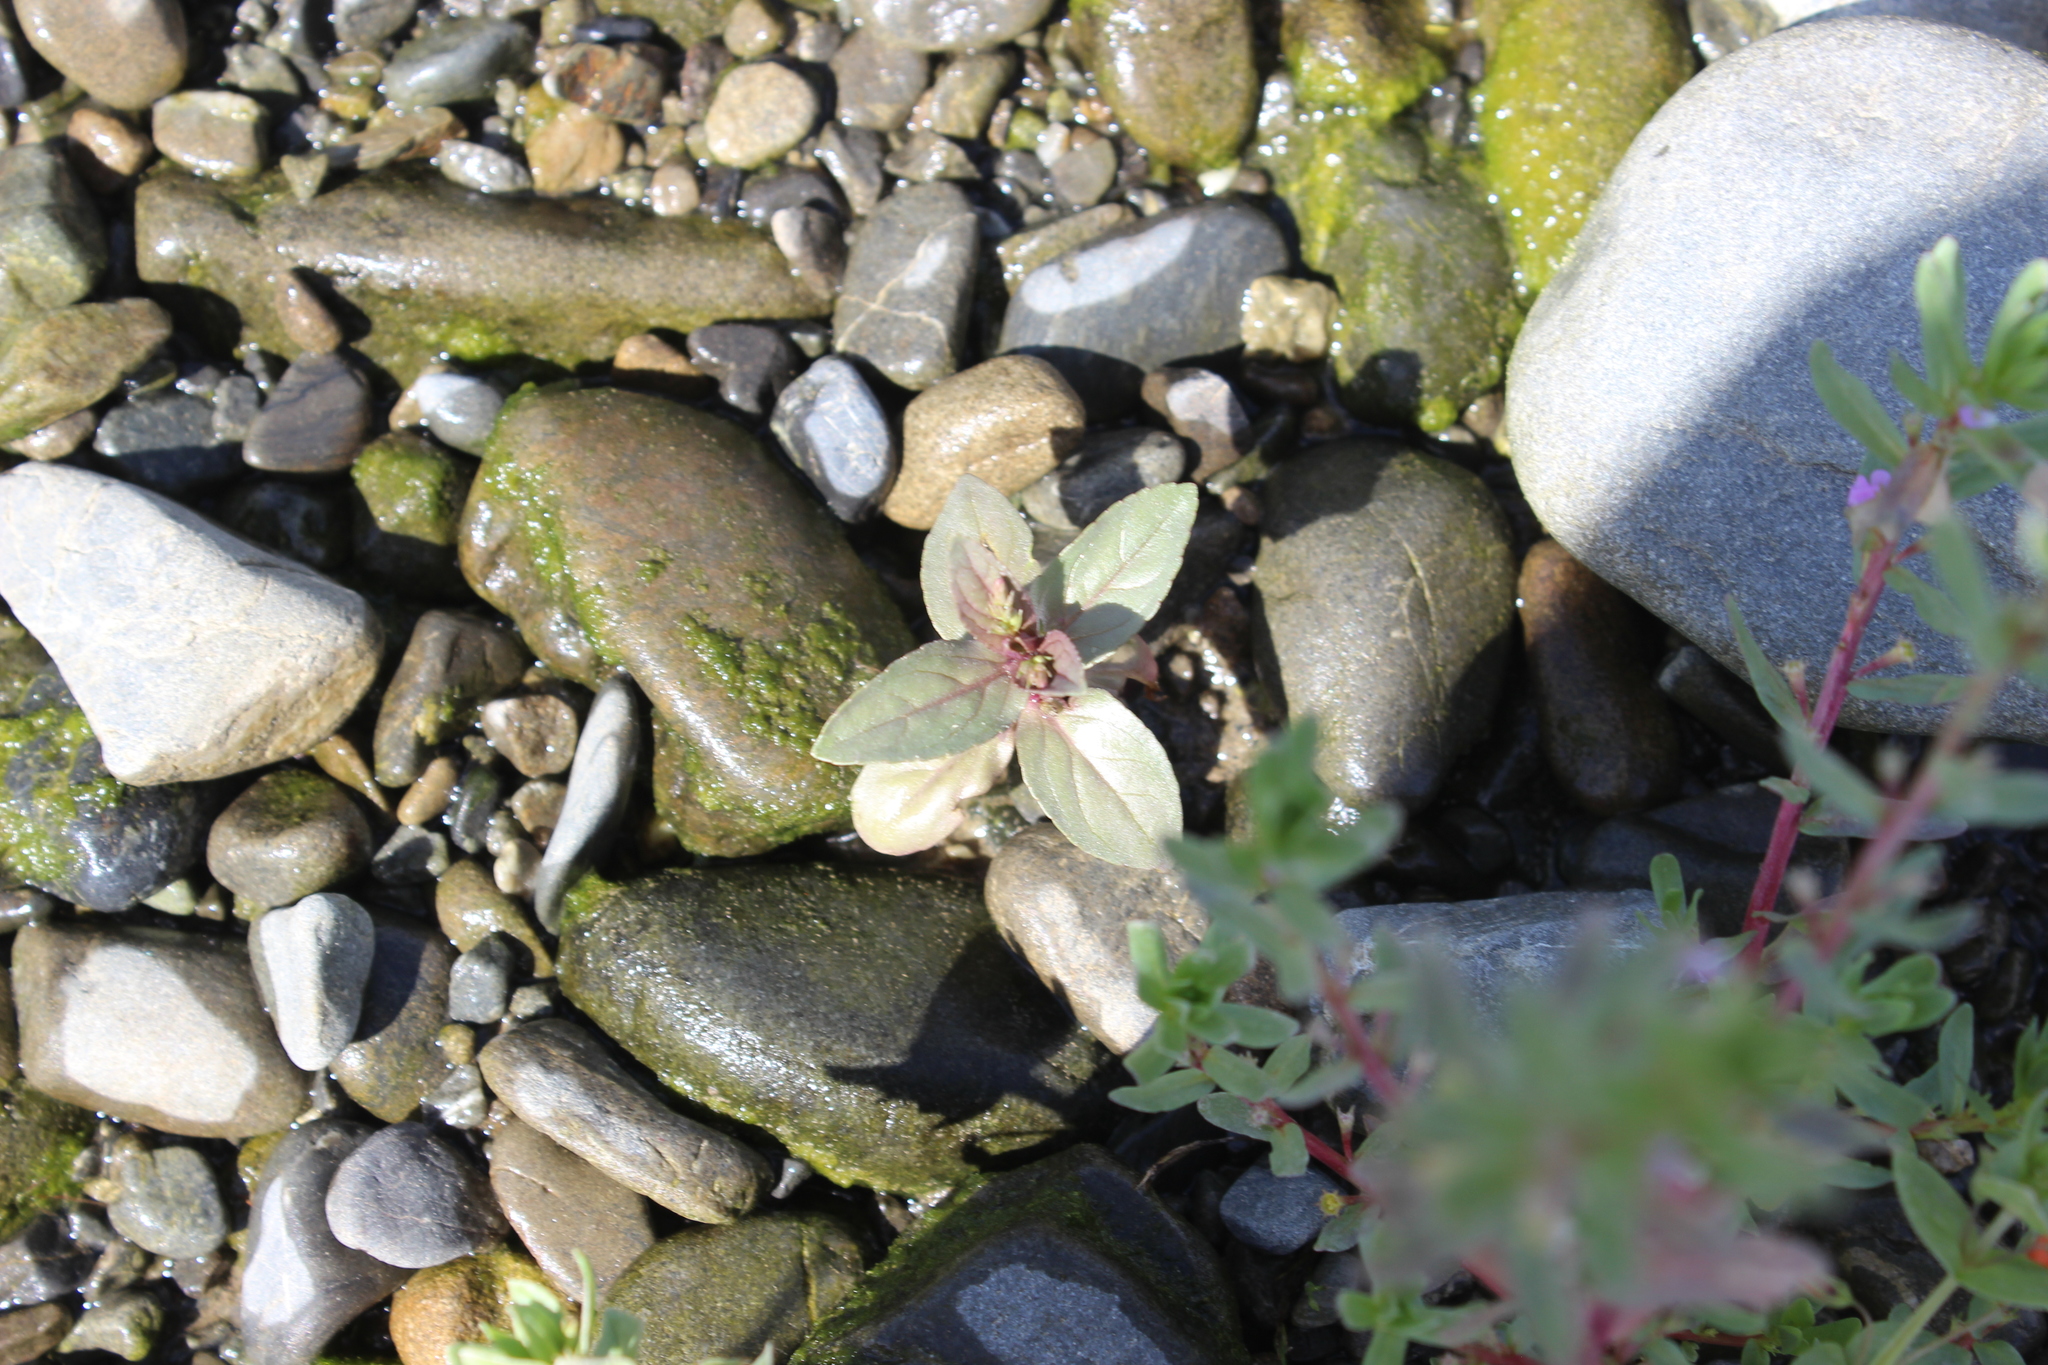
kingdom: Plantae
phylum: Tracheophyta
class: Magnoliopsida
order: Lamiales
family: Plantaginaceae
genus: Veronica
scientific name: Veronica anagallis-aquatica
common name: Water speedwell
